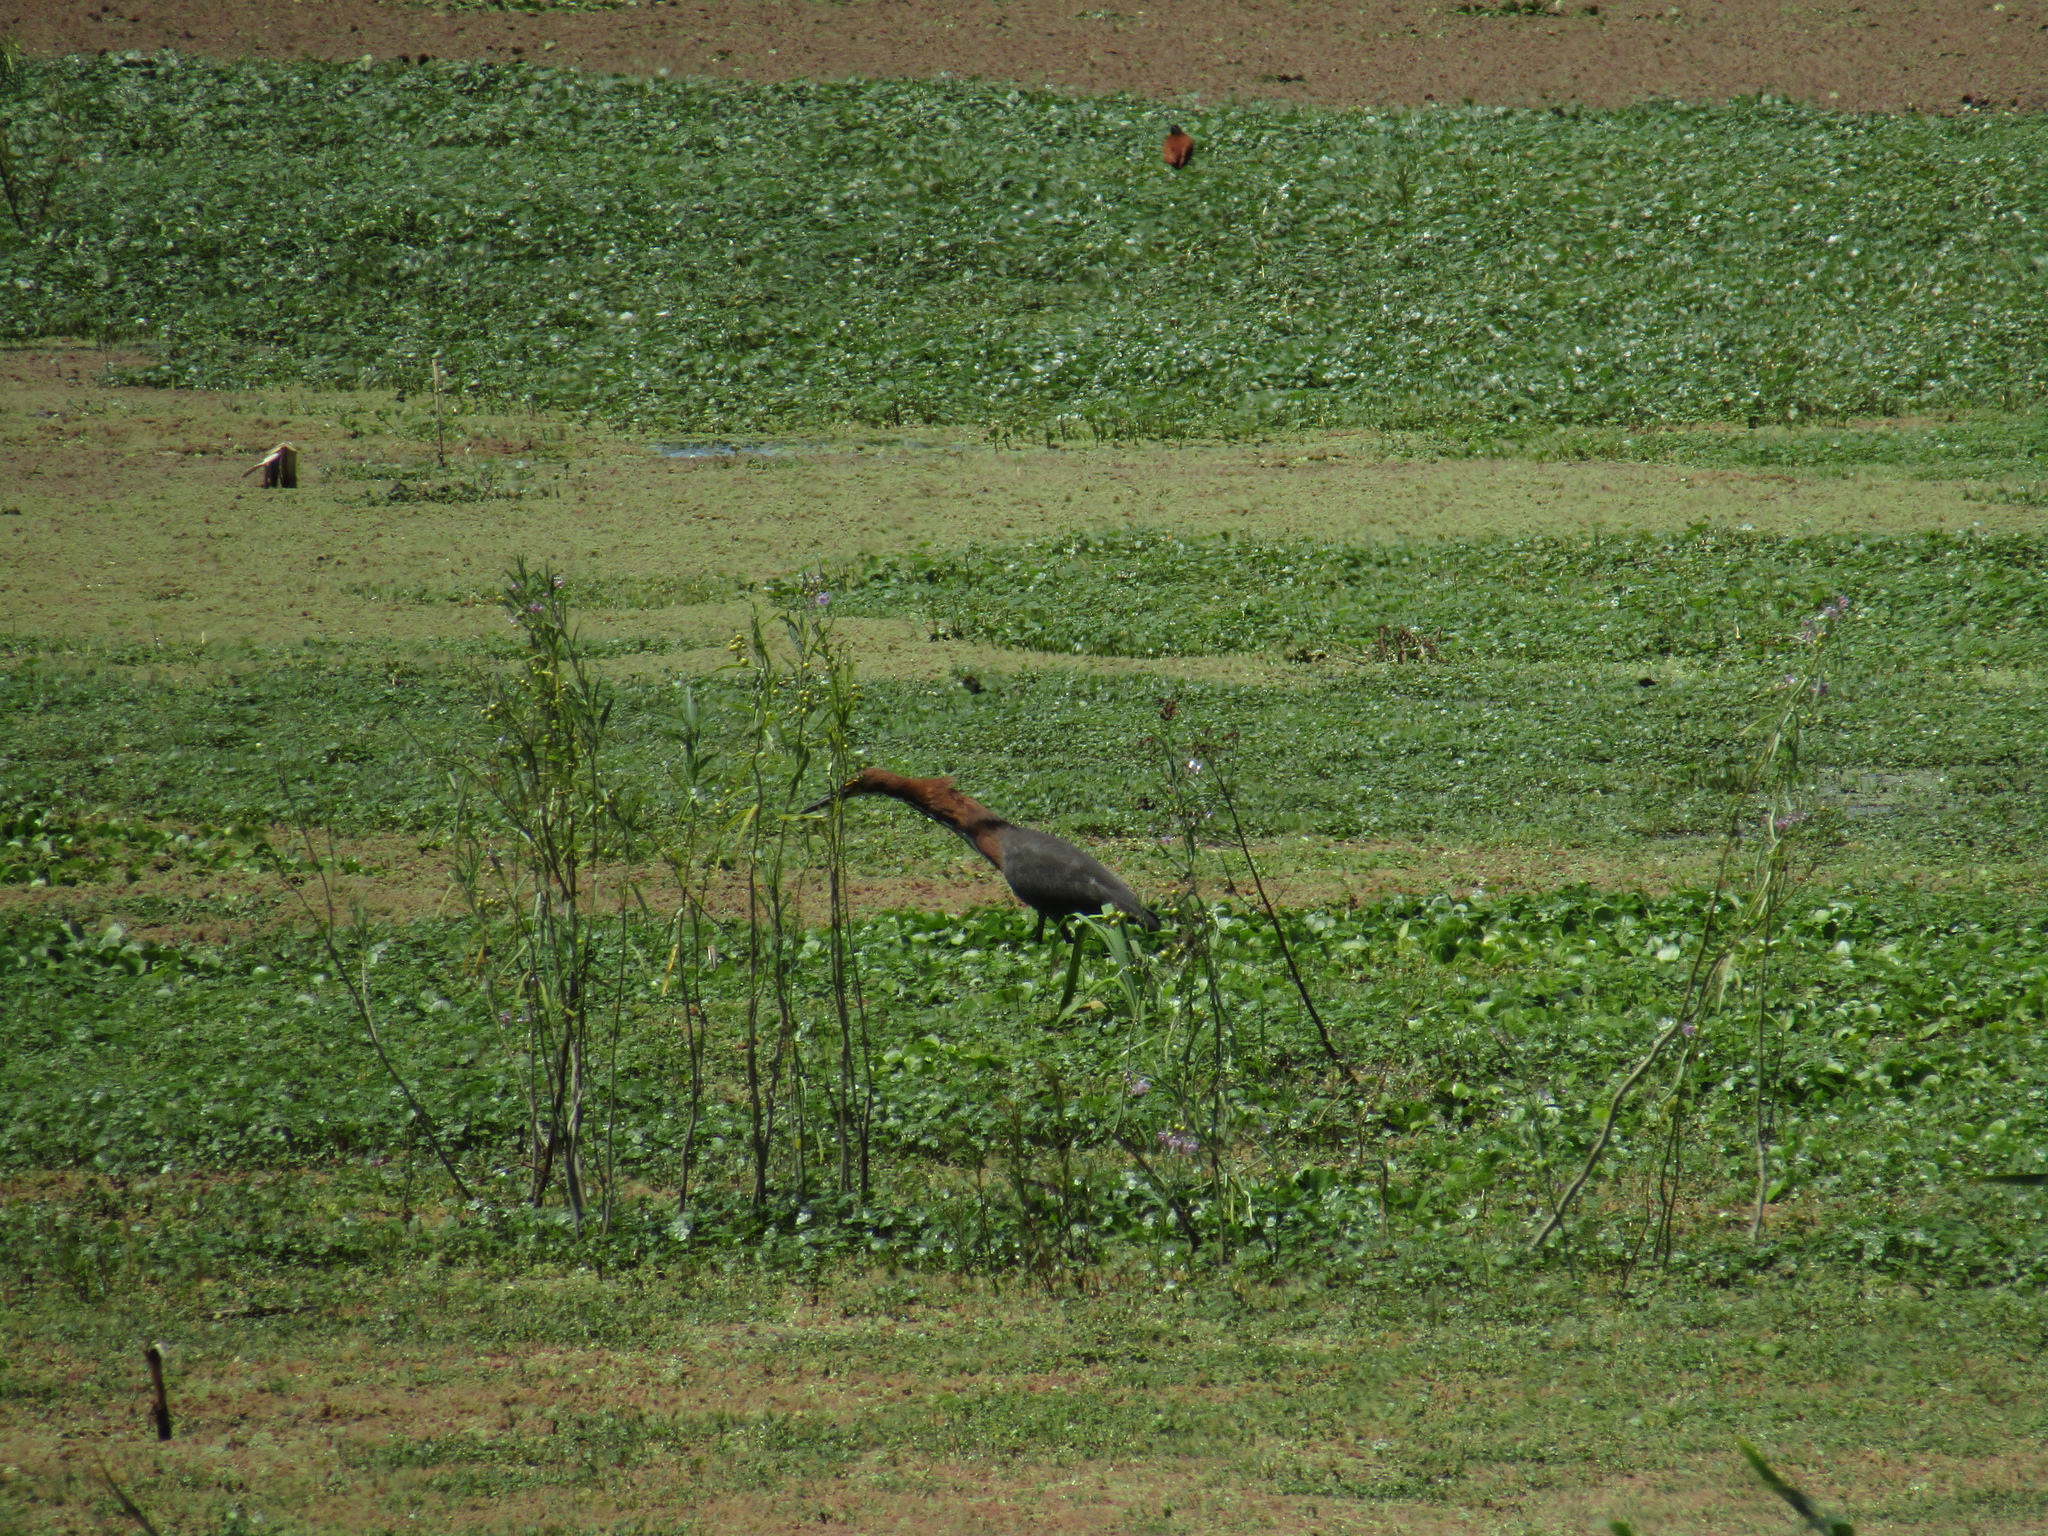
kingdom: Animalia
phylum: Chordata
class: Aves
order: Pelecaniformes
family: Ardeidae
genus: Tigrisoma
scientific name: Tigrisoma lineatum
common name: Rufescent tiger-heron
